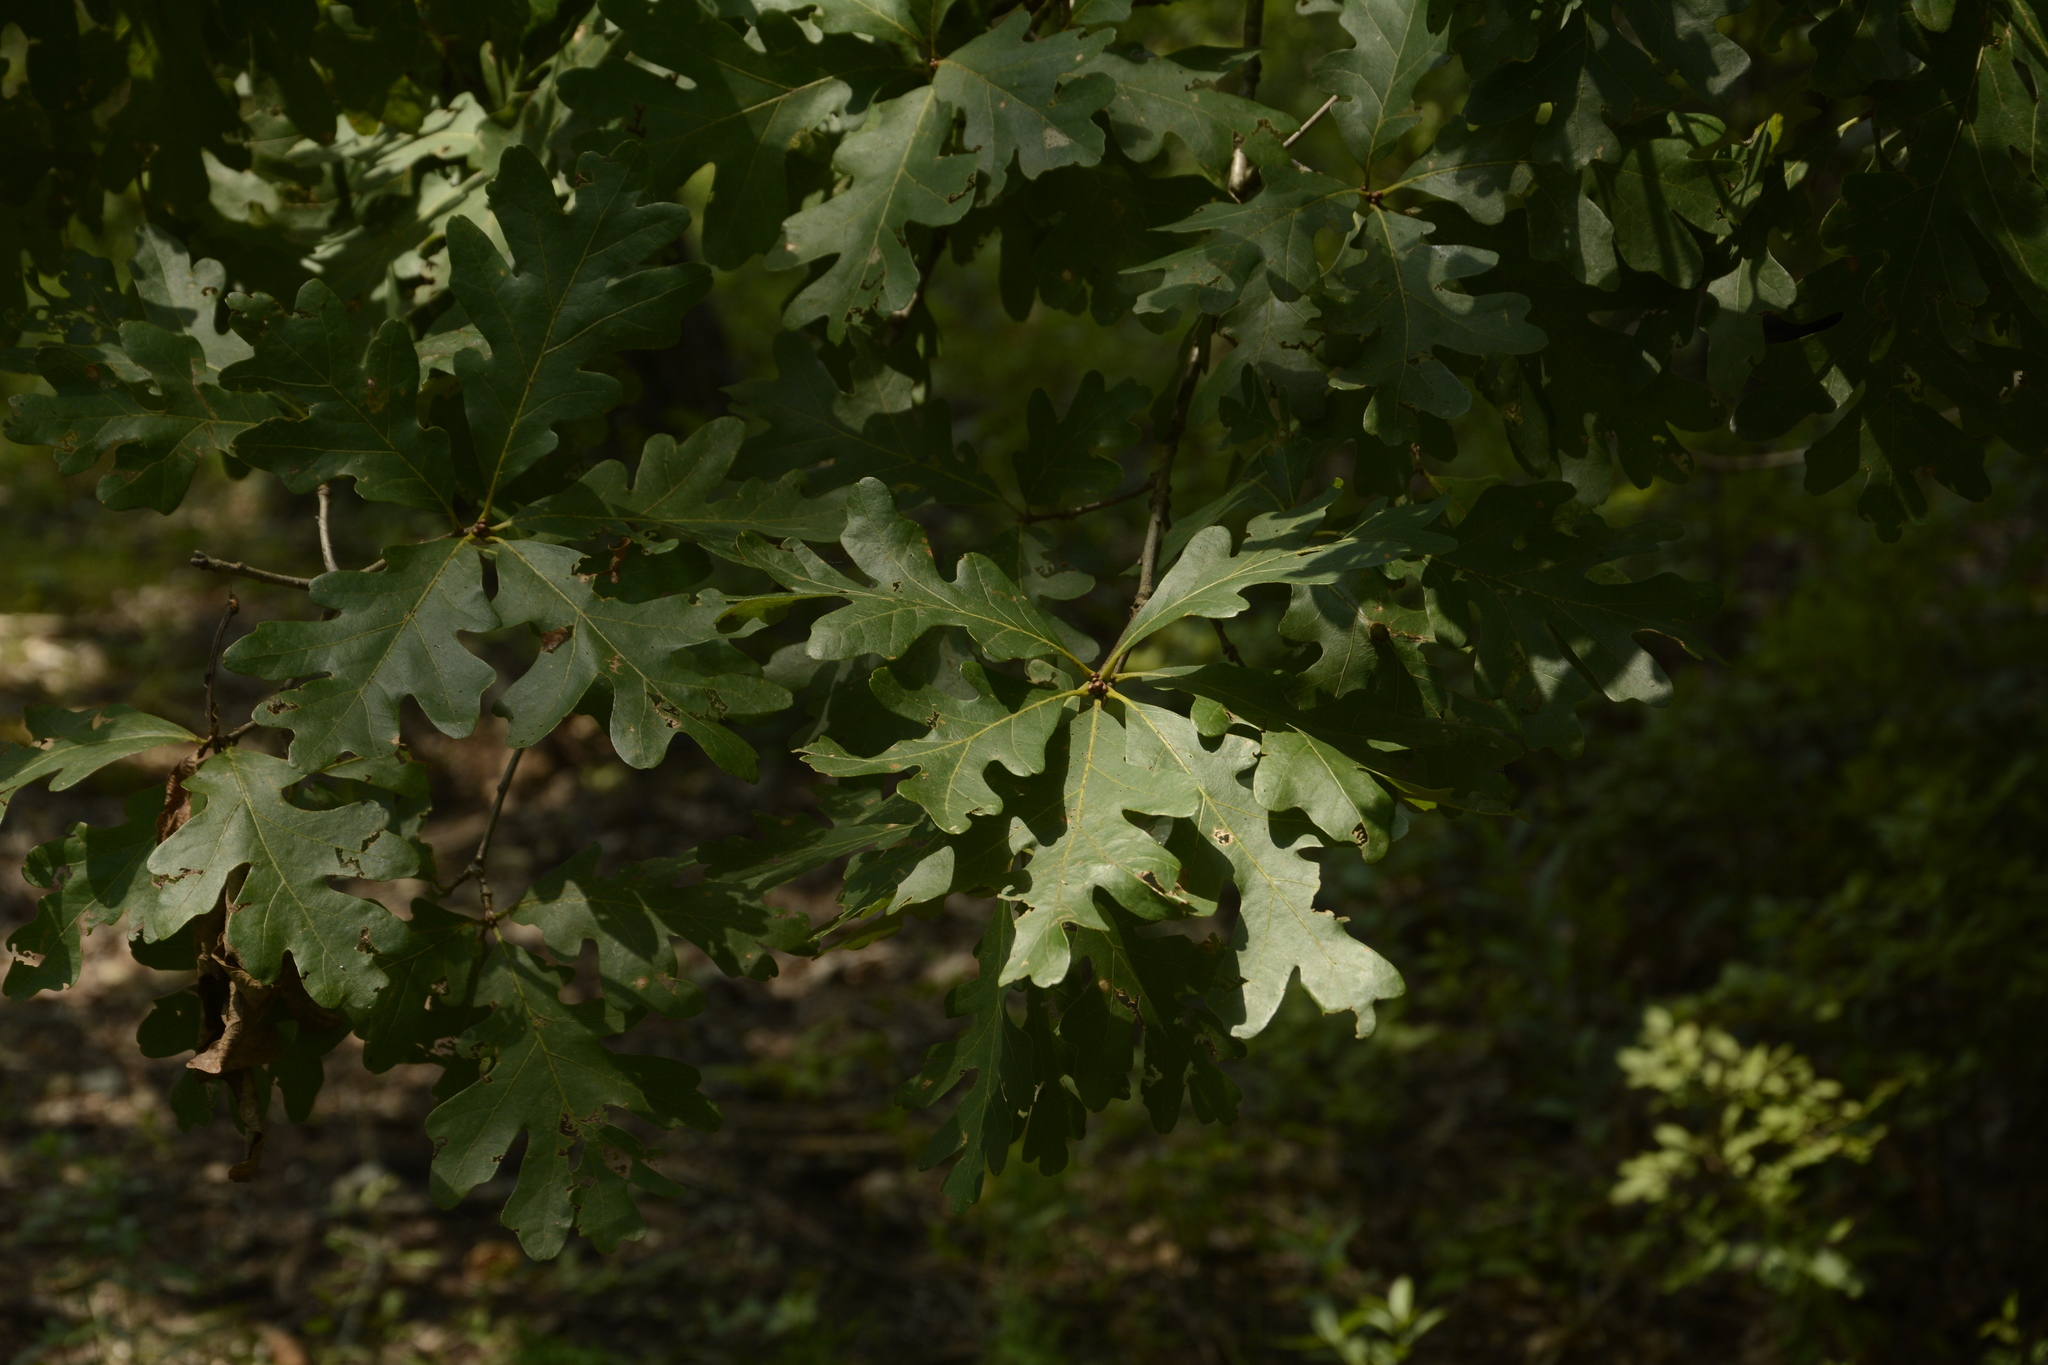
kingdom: Plantae
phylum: Tracheophyta
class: Magnoliopsida
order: Fagales
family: Fagaceae
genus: Quercus
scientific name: Quercus alba
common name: White oak
